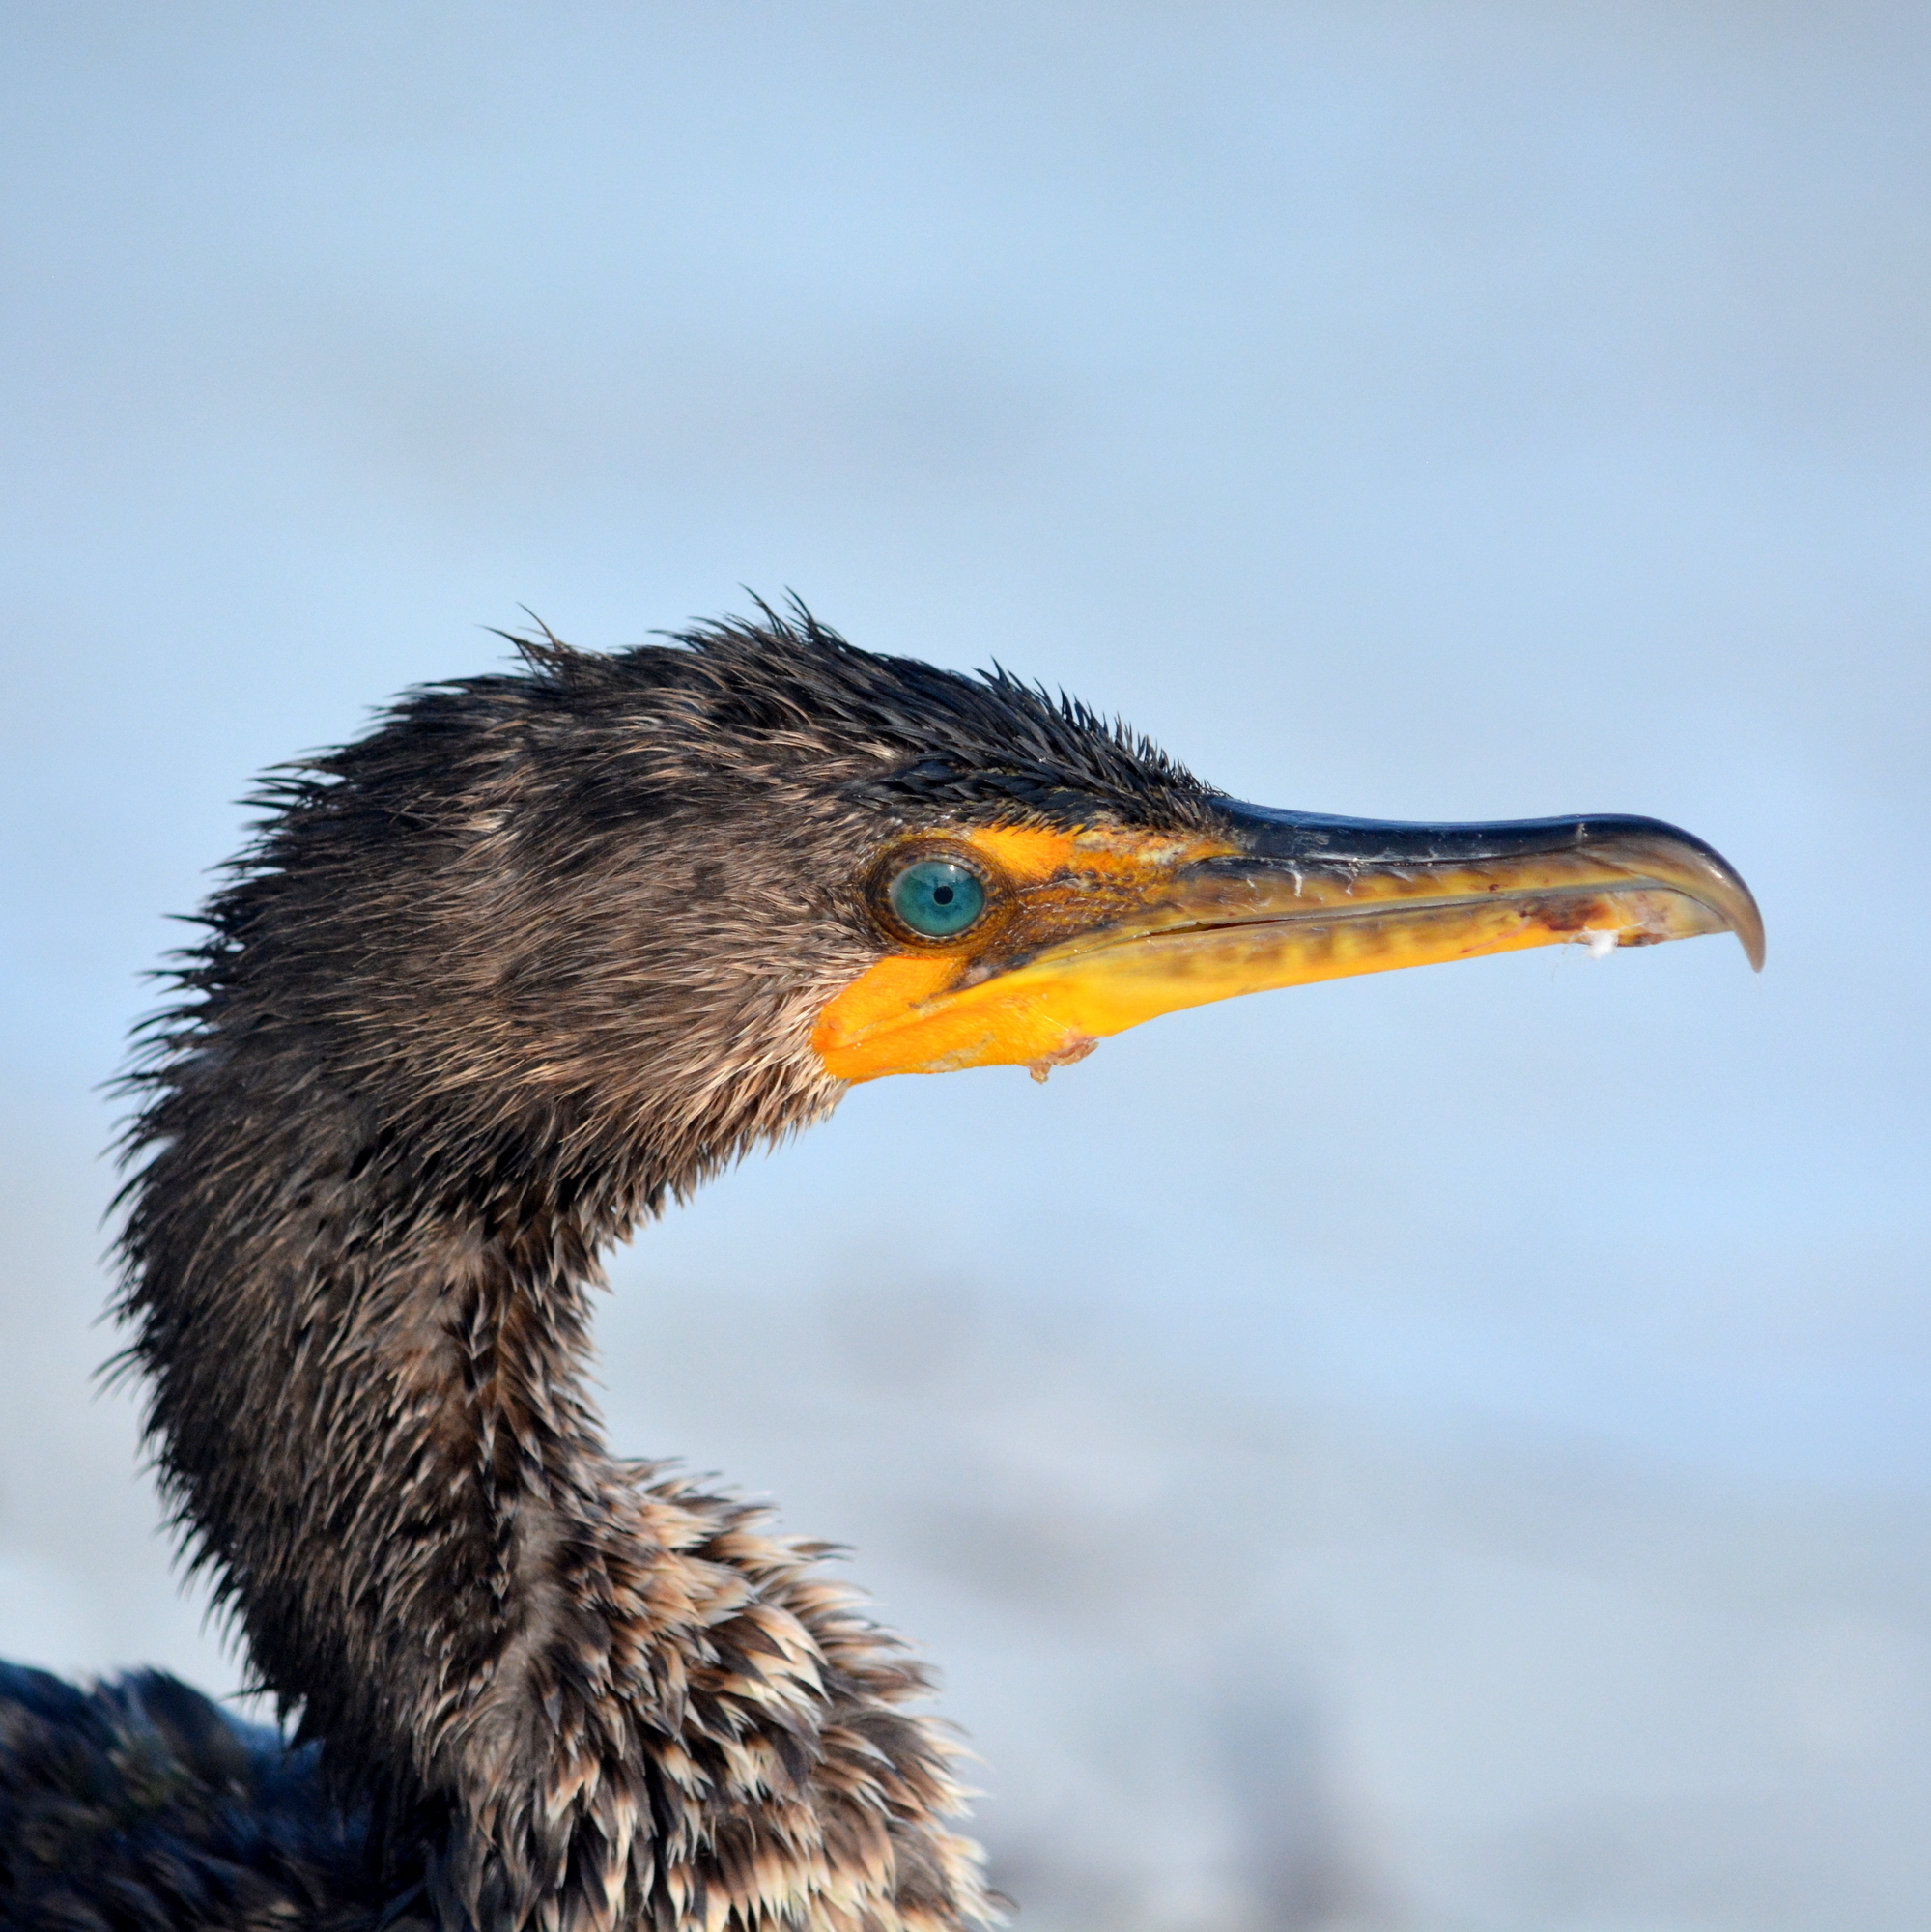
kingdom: Animalia
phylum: Chordata
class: Aves
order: Suliformes
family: Phalacrocoracidae
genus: Phalacrocorax
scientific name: Phalacrocorax auritus
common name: Double-crested cormorant
